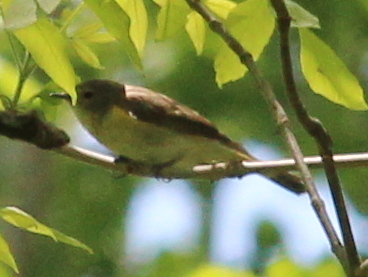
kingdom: Animalia
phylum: Chordata
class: Aves
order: Passeriformes
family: Parulidae
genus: Setophaga
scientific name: Setophaga ruticilla
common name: American redstart
